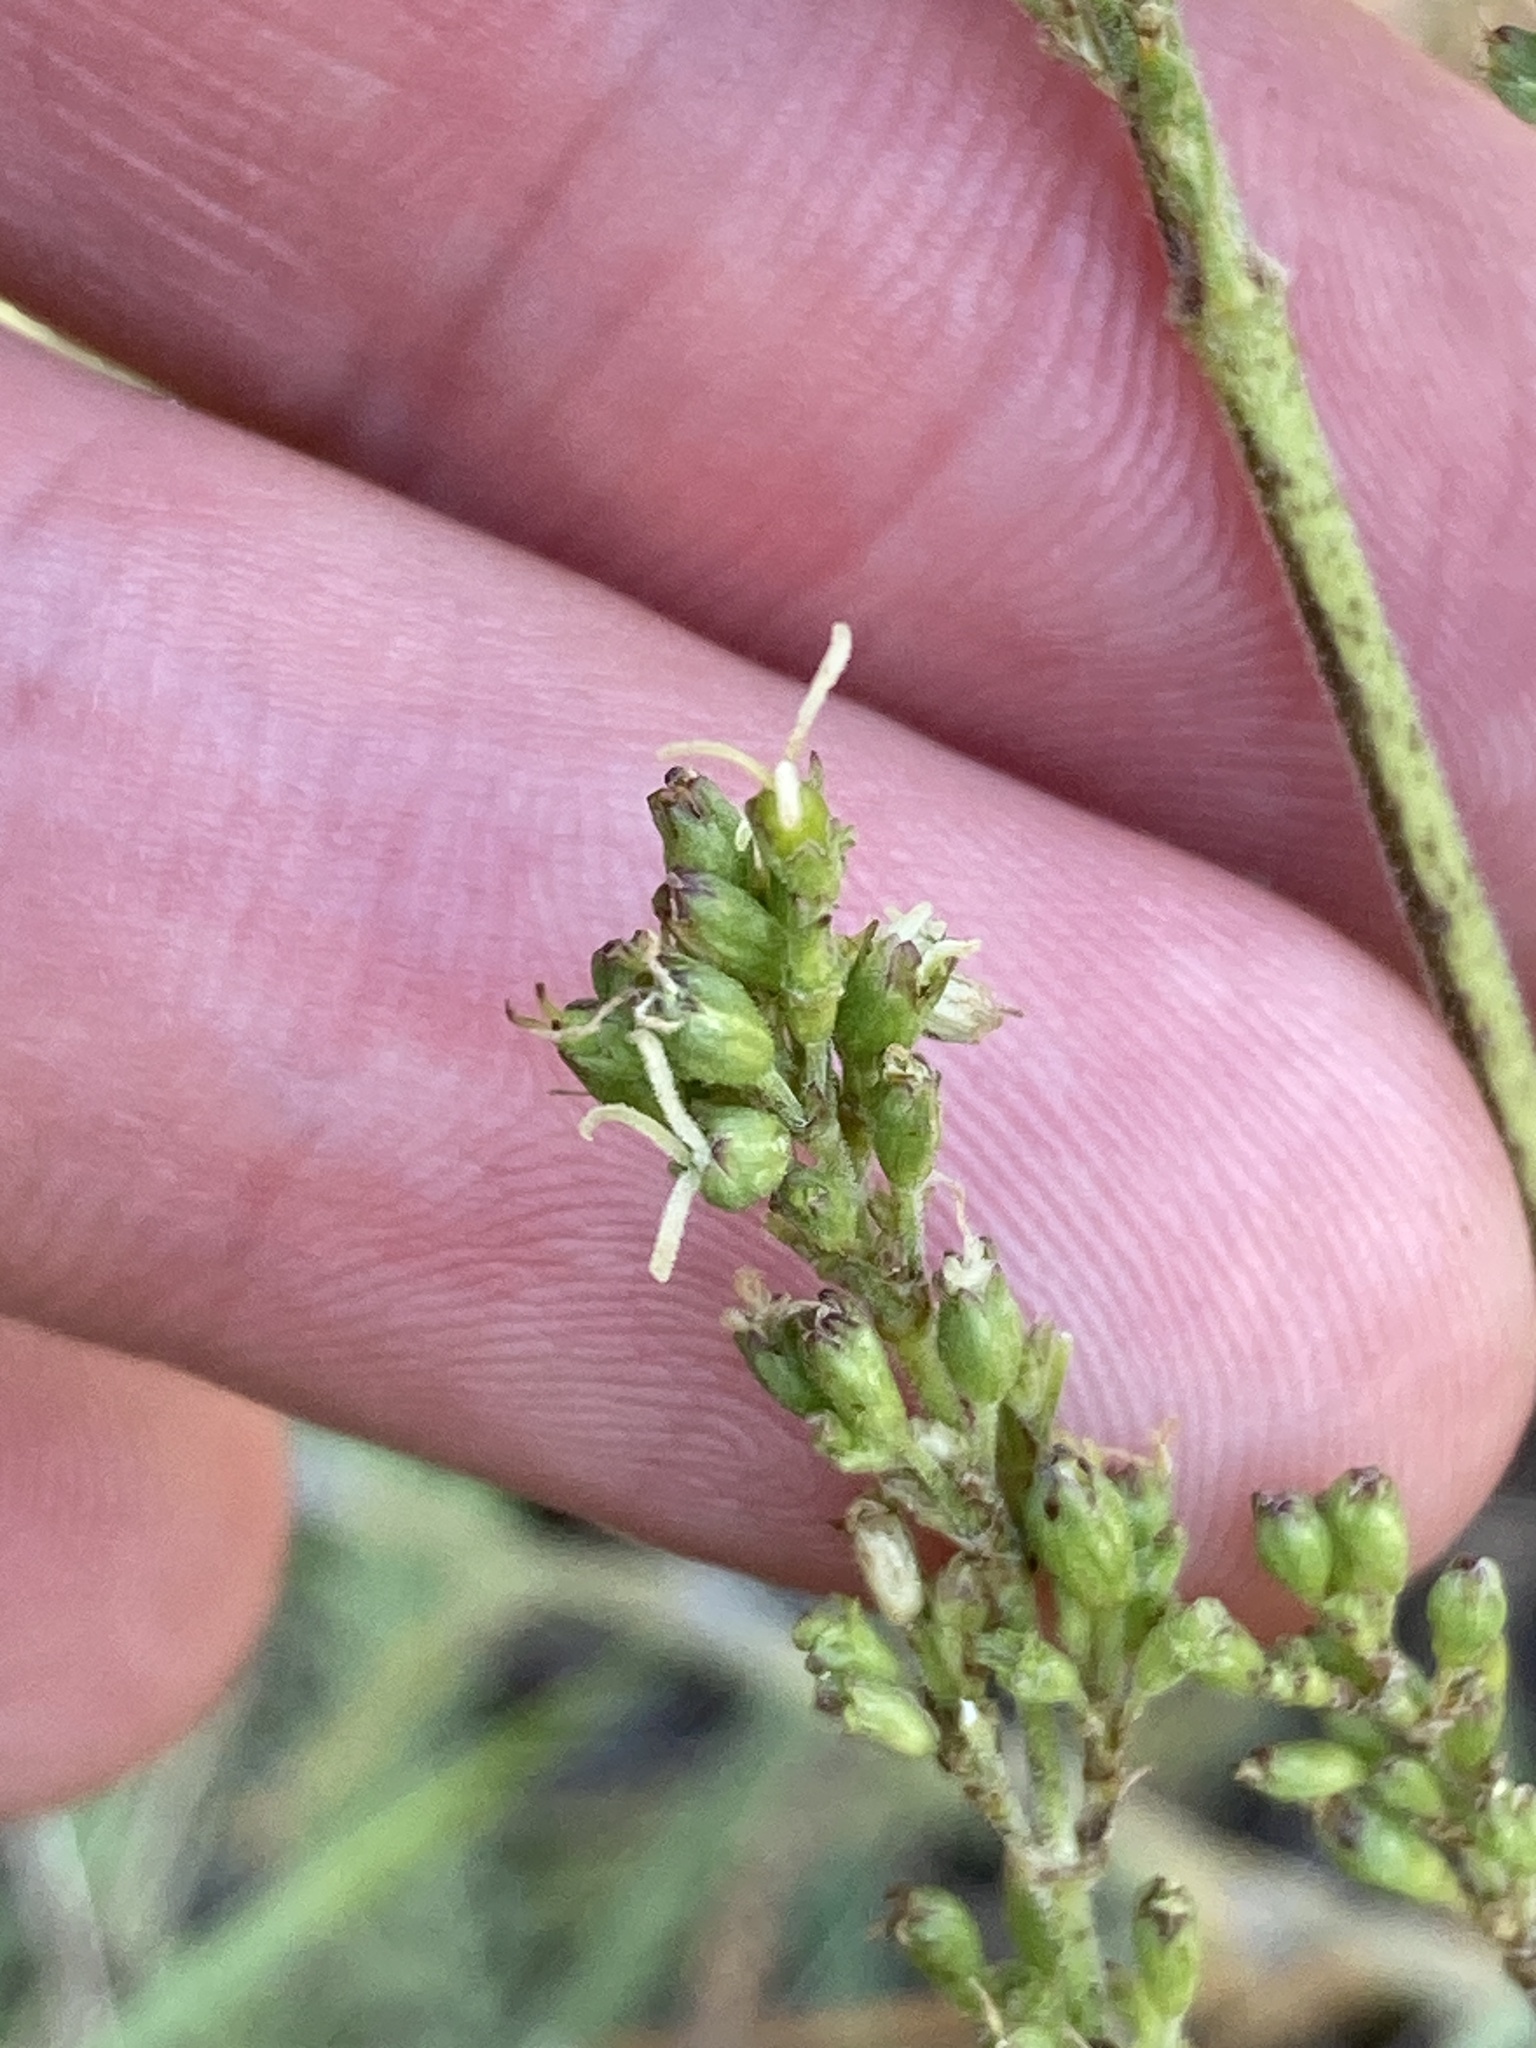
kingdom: Plantae
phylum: Tracheophyta
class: Magnoliopsida
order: Caryophyllales
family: Caryophyllaceae
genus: Silene
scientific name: Silene borysthenica
